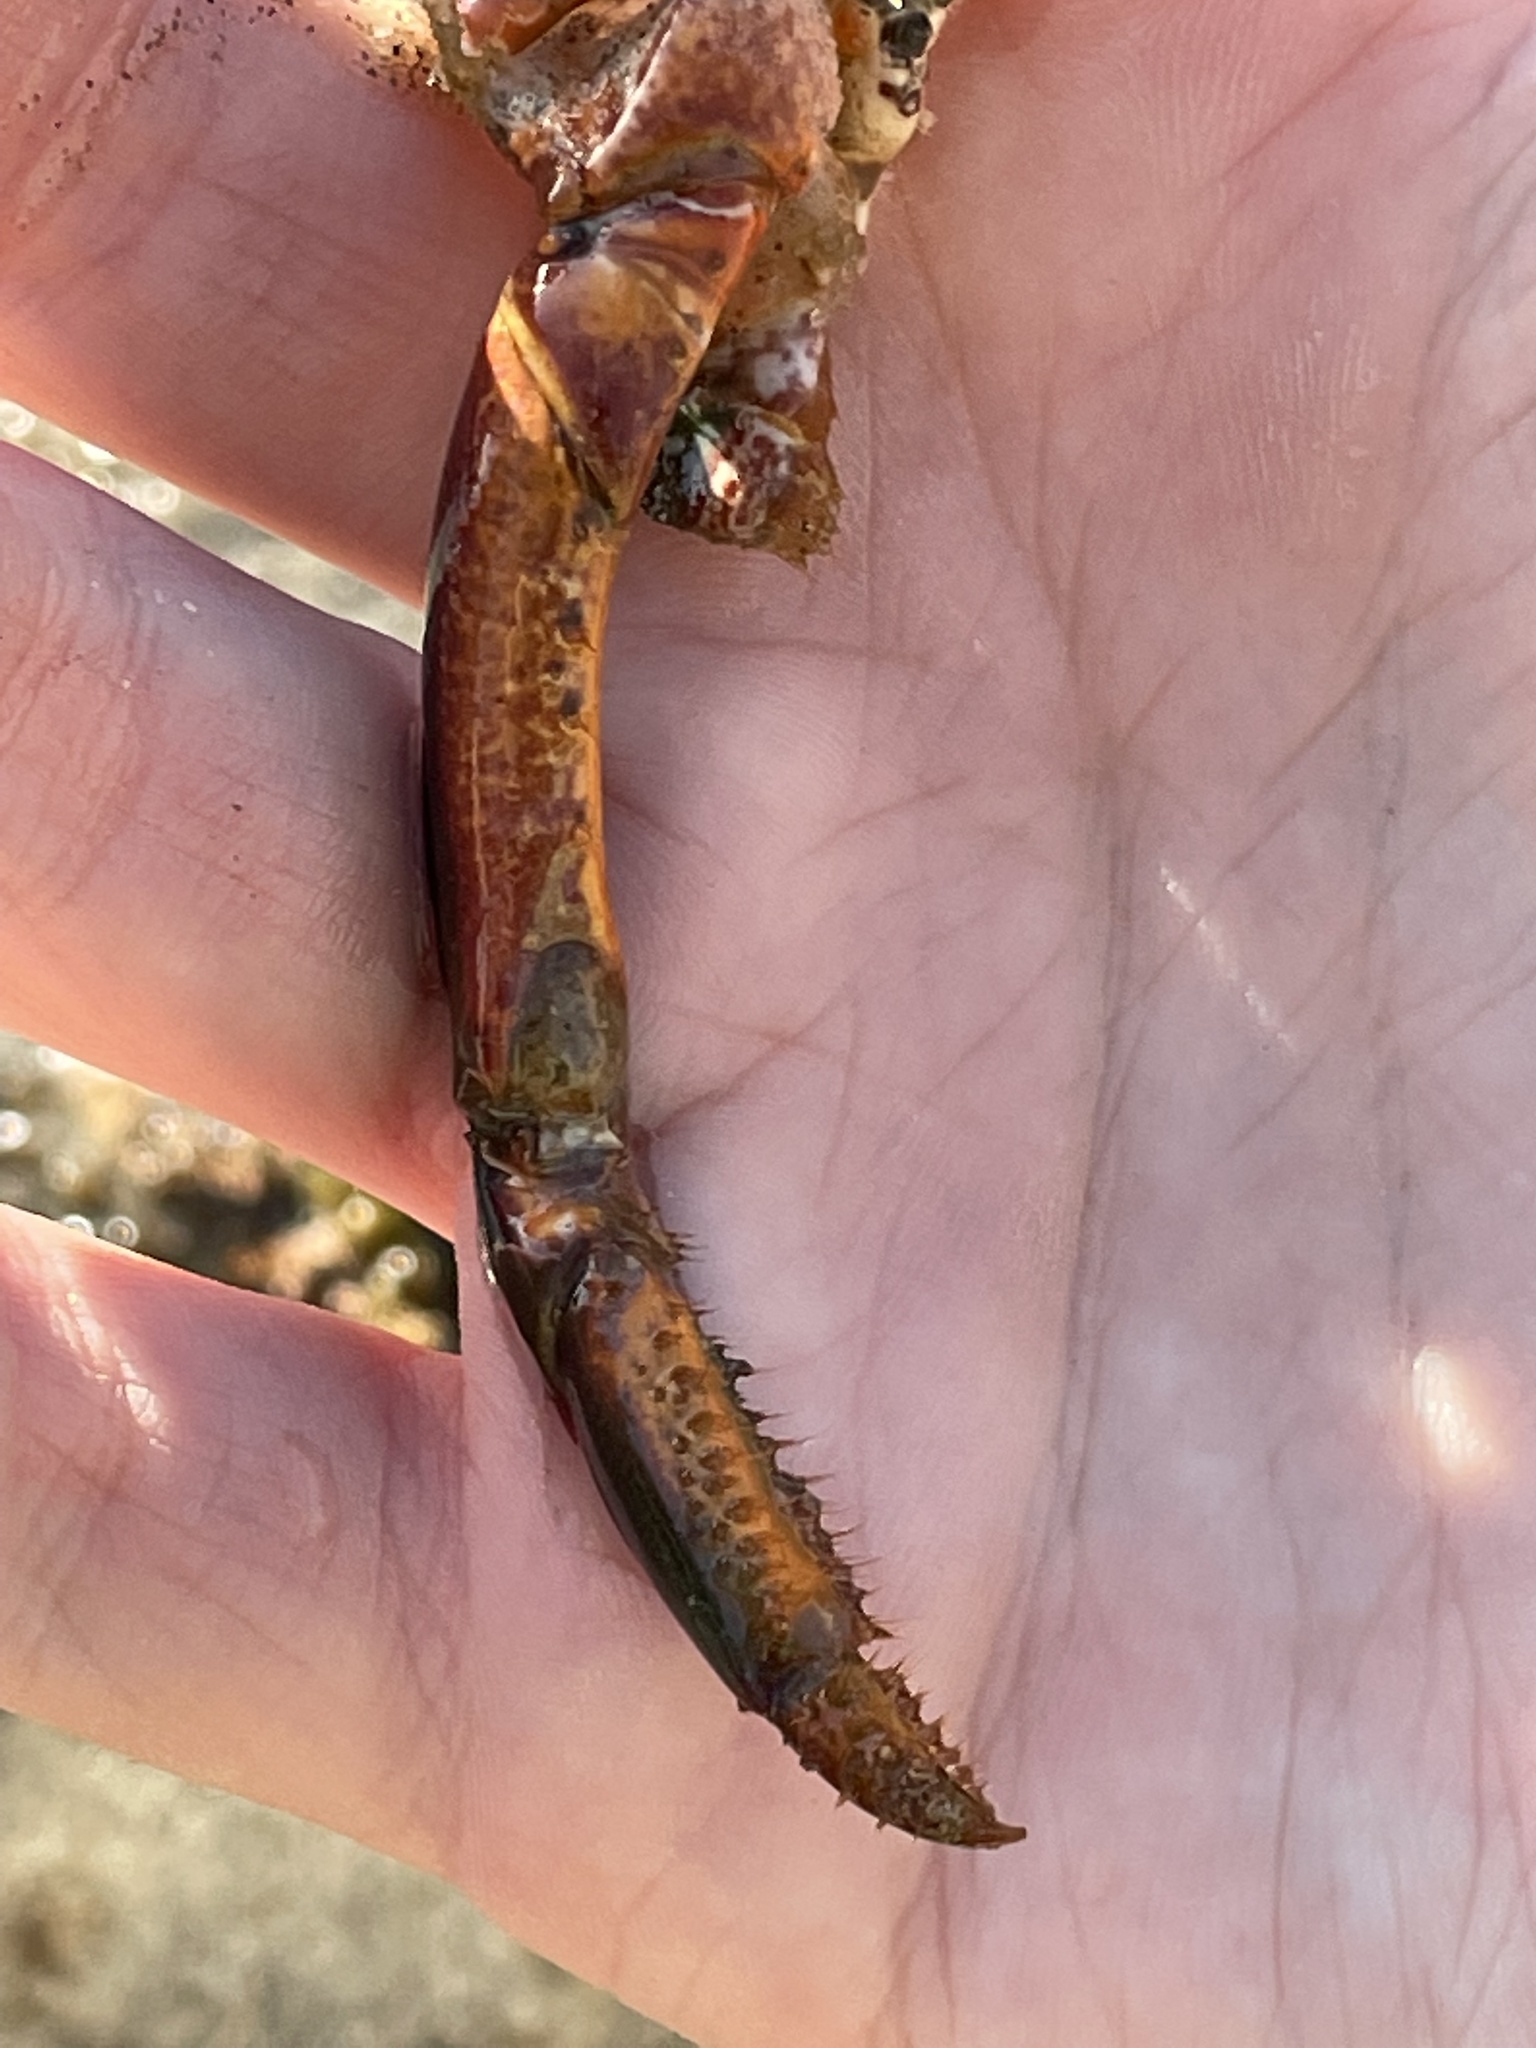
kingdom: Animalia
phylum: Arthropoda
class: Malacostraca
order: Decapoda
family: Palinuridae
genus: Panulirus
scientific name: Panulirus interruptus
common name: California spiny lobster
